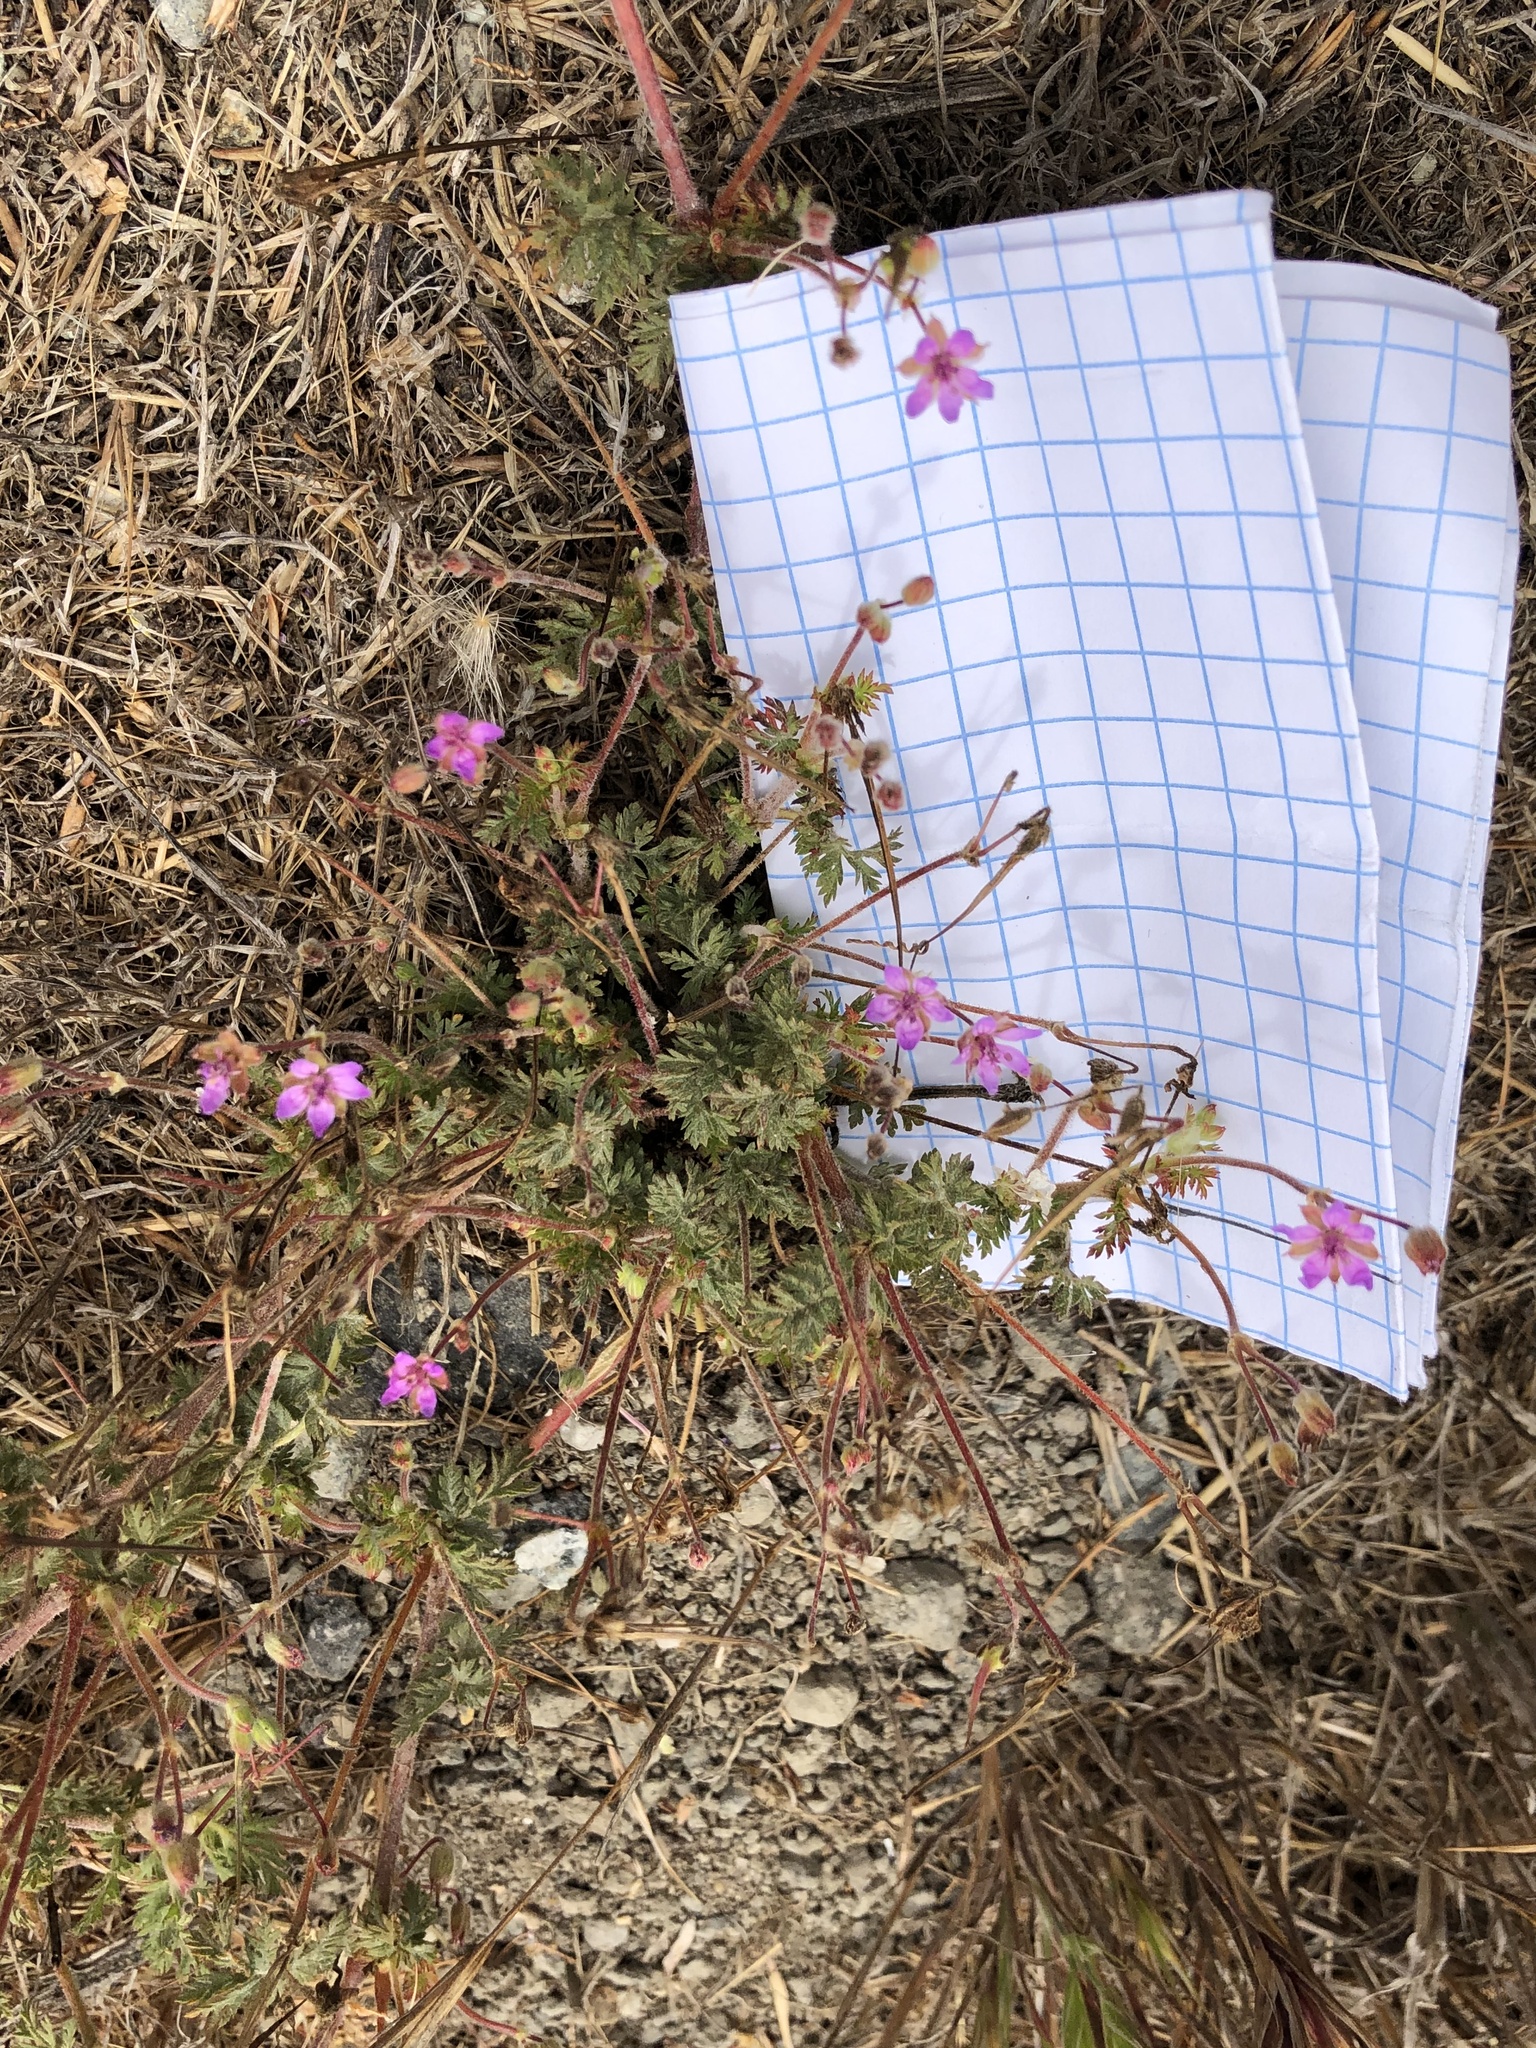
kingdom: Plantae
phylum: Tracheophyta
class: Magnoliopsida
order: Geraniales
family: Geraniaceae
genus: Erodium
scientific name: Erodium cicutarium
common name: Common stork's-bill
